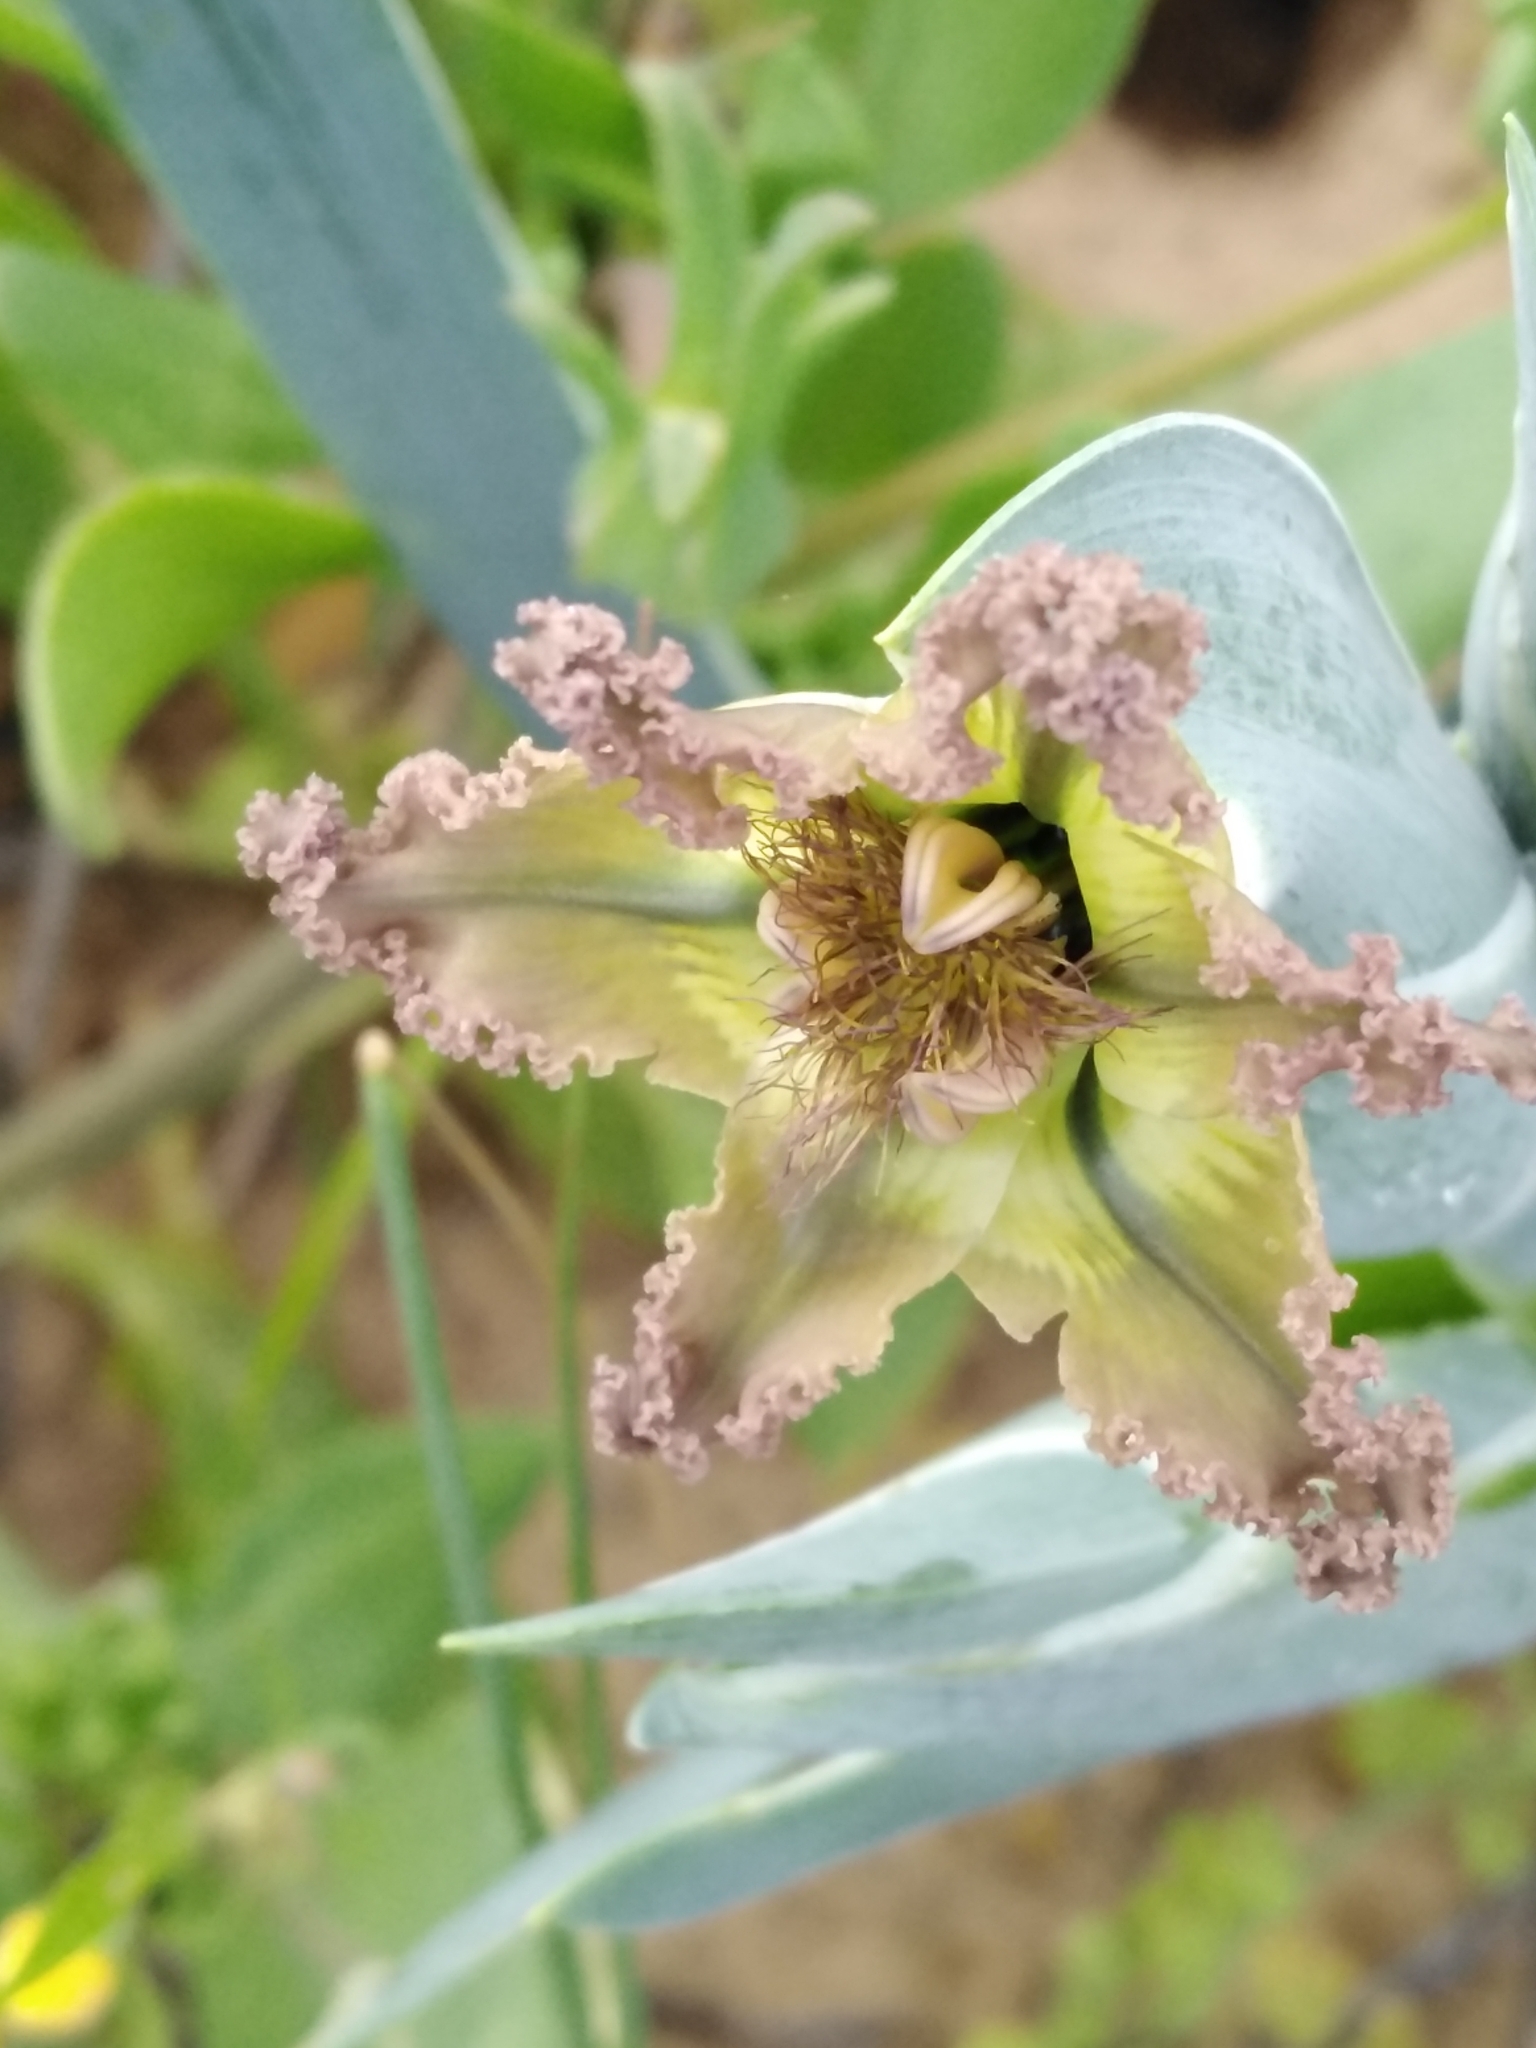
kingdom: Plantae
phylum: Tracheophyta
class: Liliopsida
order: Asparagales
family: Iridaceae
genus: Ferraria
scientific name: Ferraria variabilis
